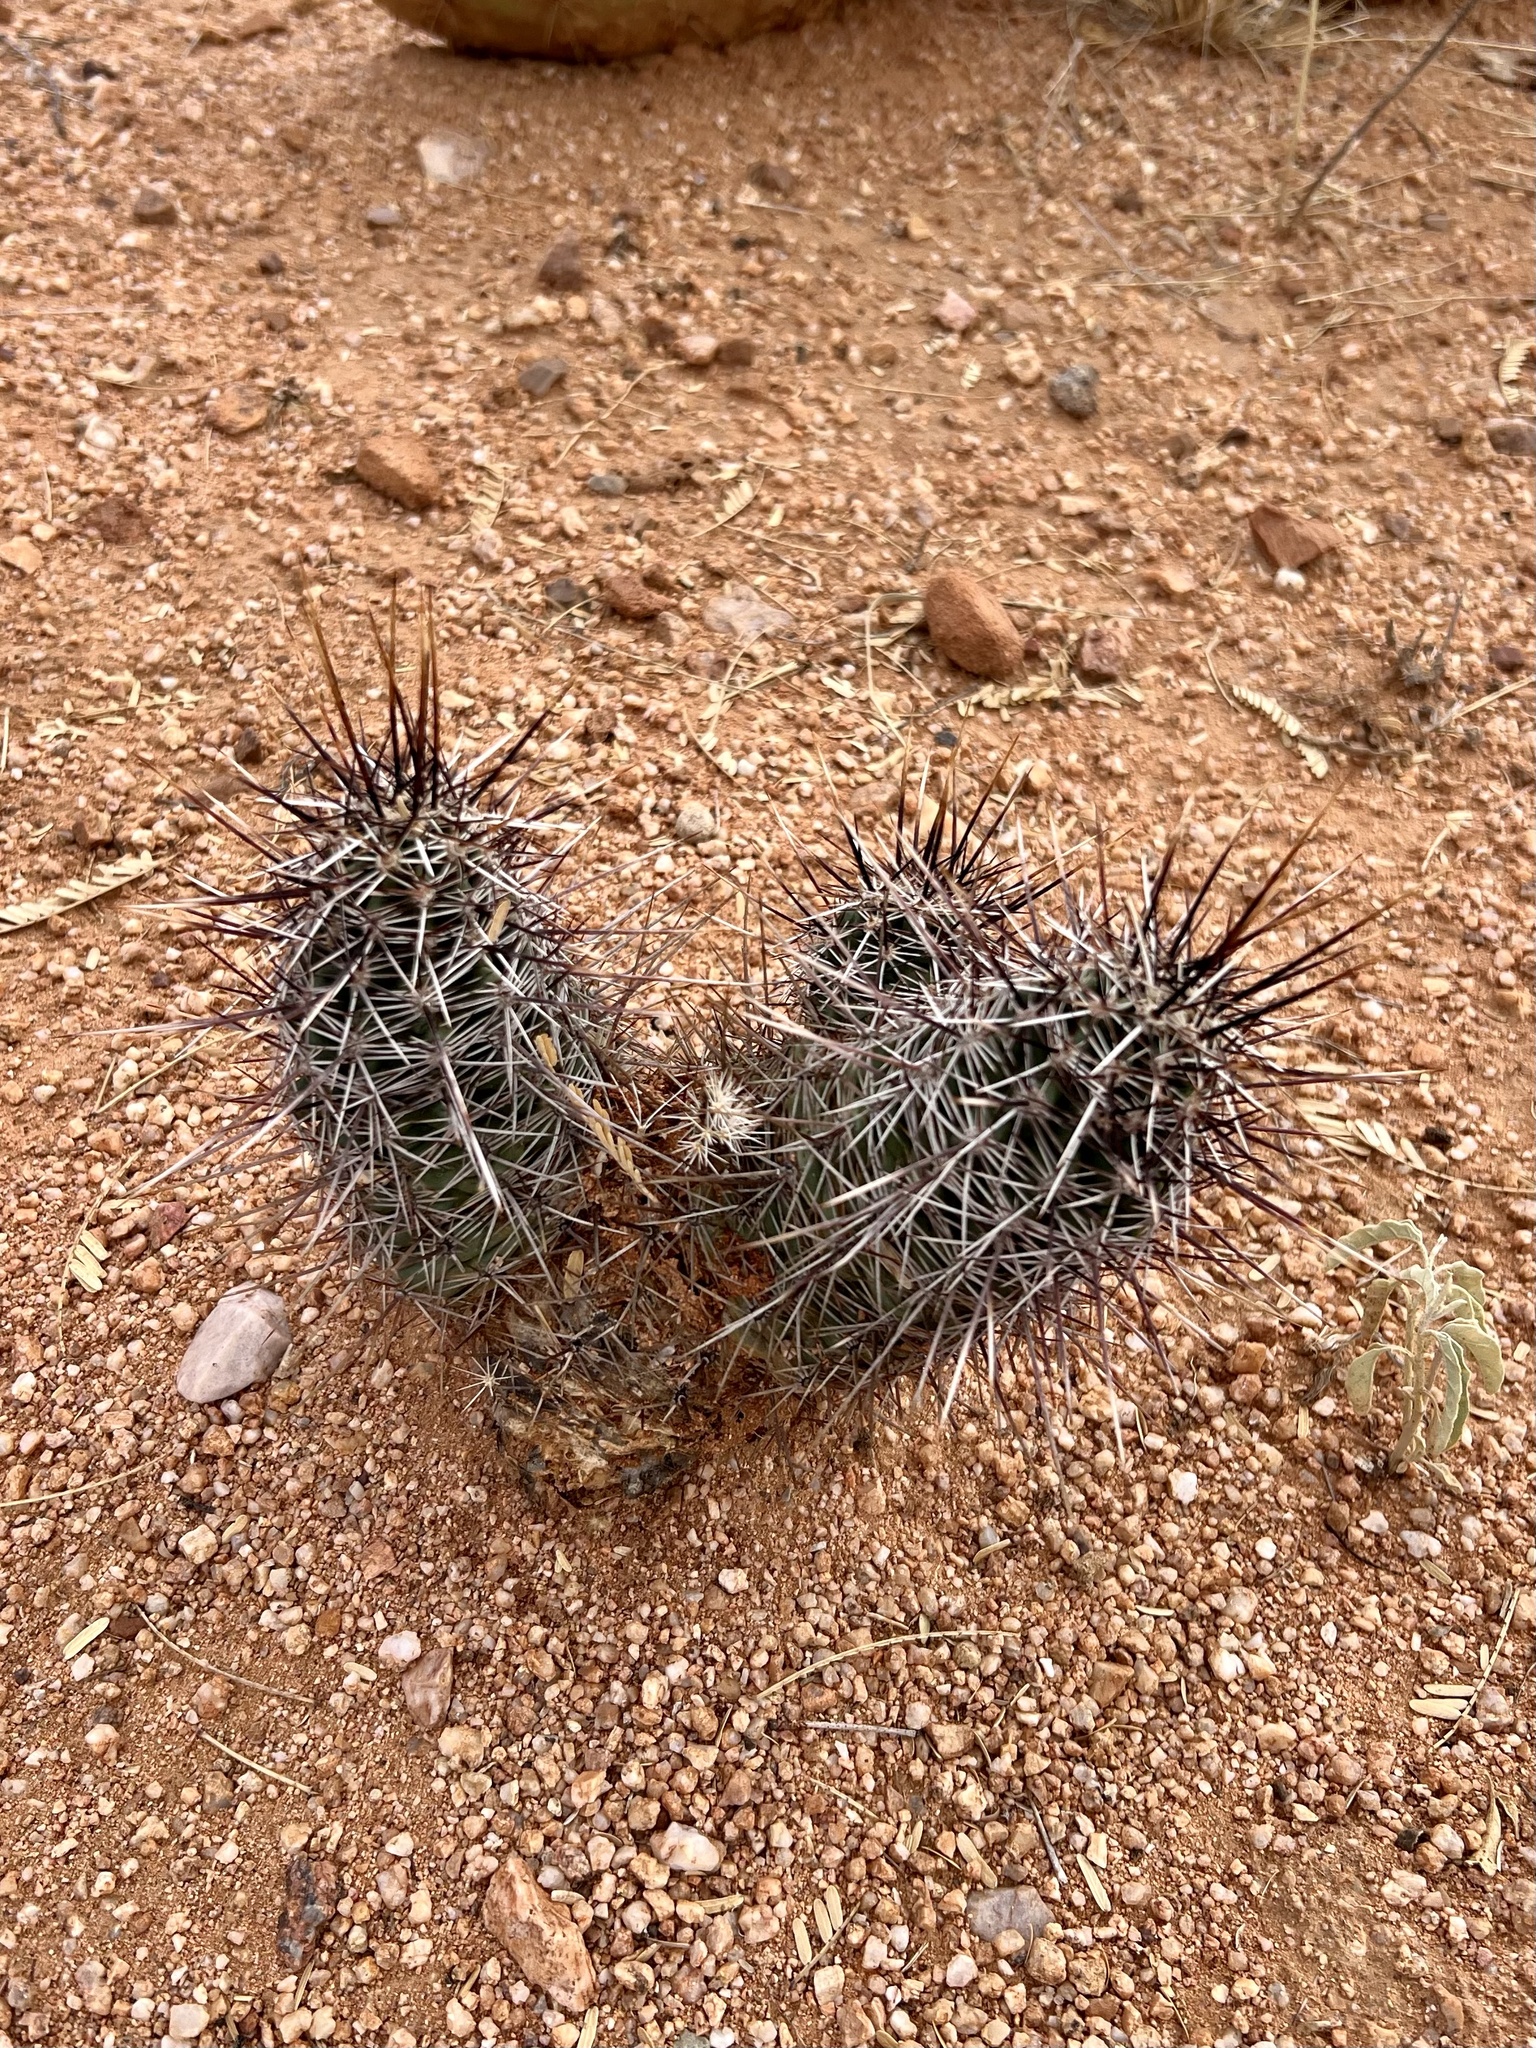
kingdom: Plantae
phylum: Tracheophyta
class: Magnoliopsida
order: Caryophyllales
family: Cactaceae
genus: Echinocereus
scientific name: Echinocereus fasciculatus
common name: Bundle hedgehog
